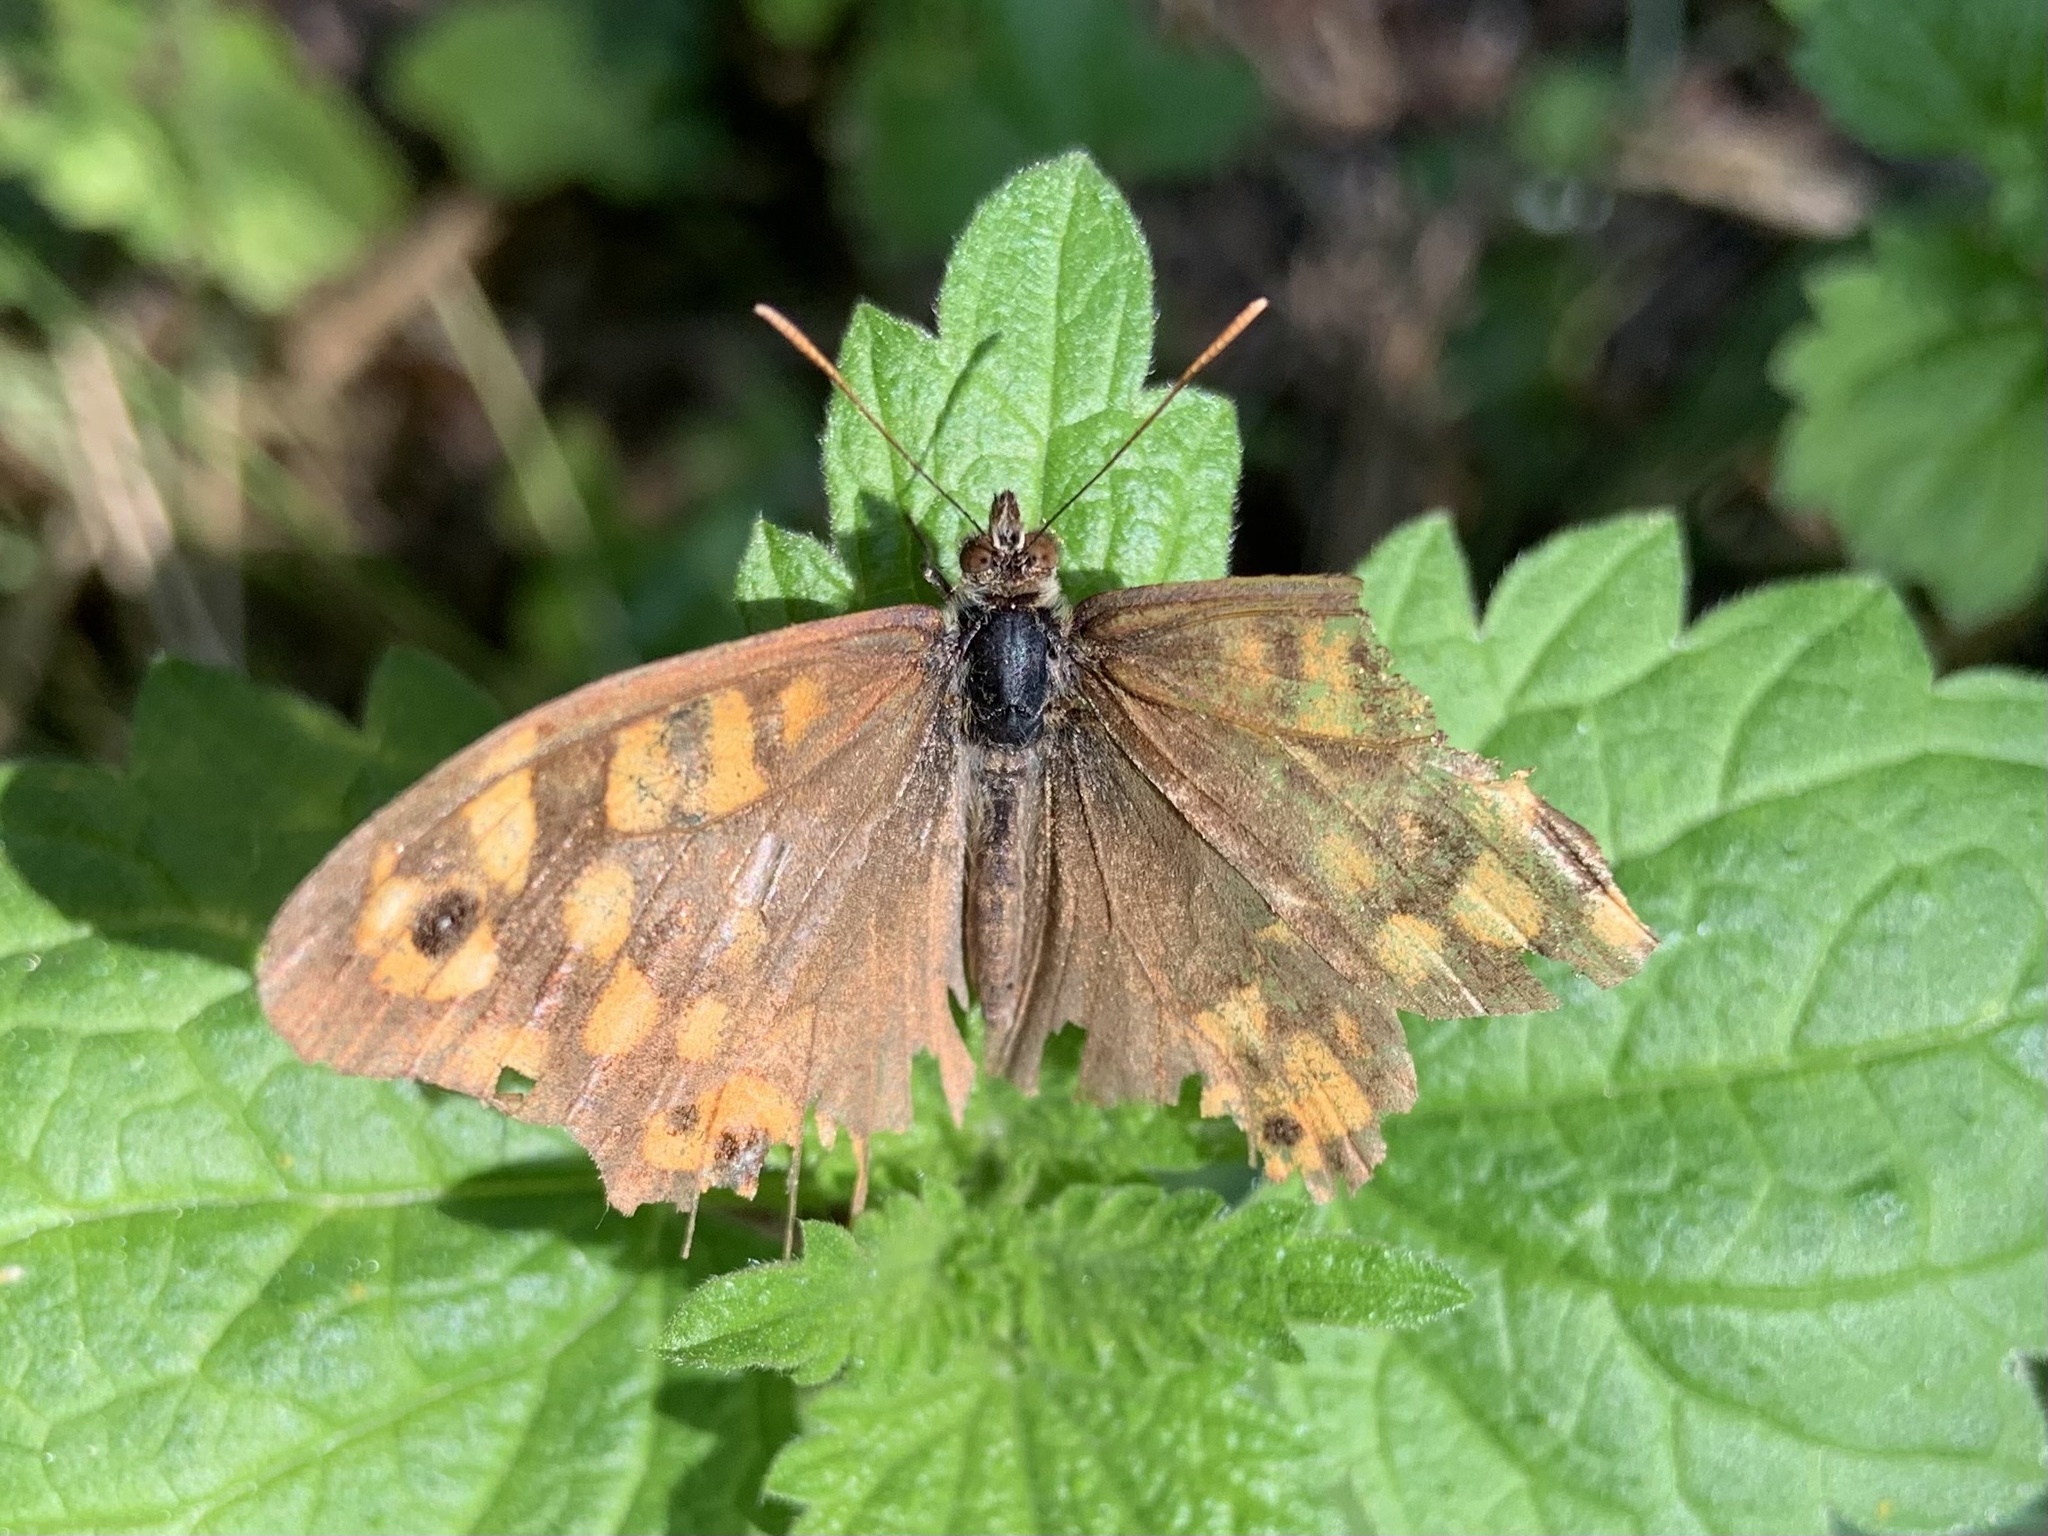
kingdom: Animalia
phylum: Arthropoda
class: Insecta
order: Lepidoptera
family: Nymphalidae
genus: Pararge
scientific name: Pararge aegeria
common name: Speckled wood
